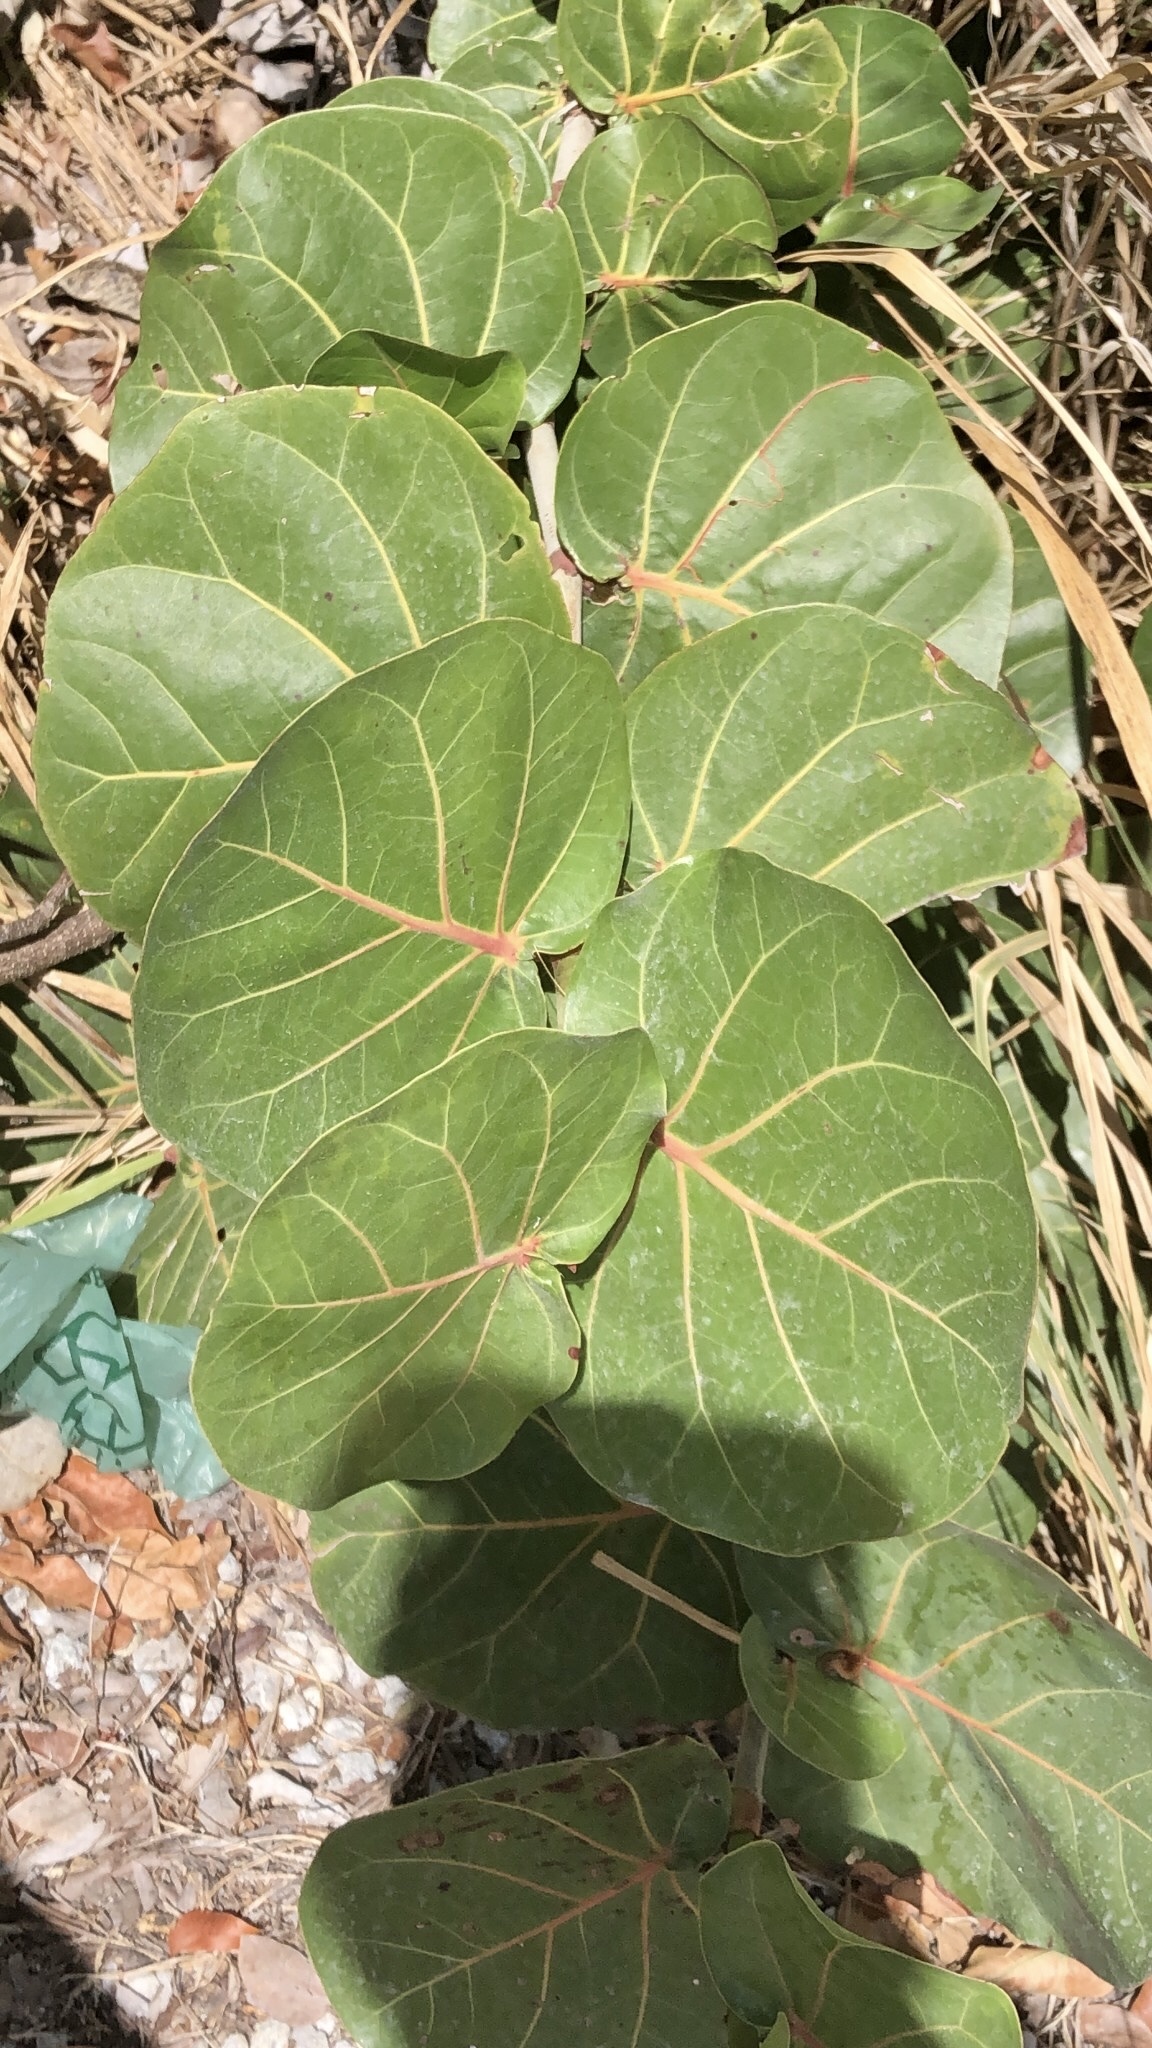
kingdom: Plantae
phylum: Tracheophyta
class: Magnoliopsida
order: Caryophyllales
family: Polygonaceae
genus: Coccoloba
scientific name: Coccoloba uvifera
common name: Seagrape
